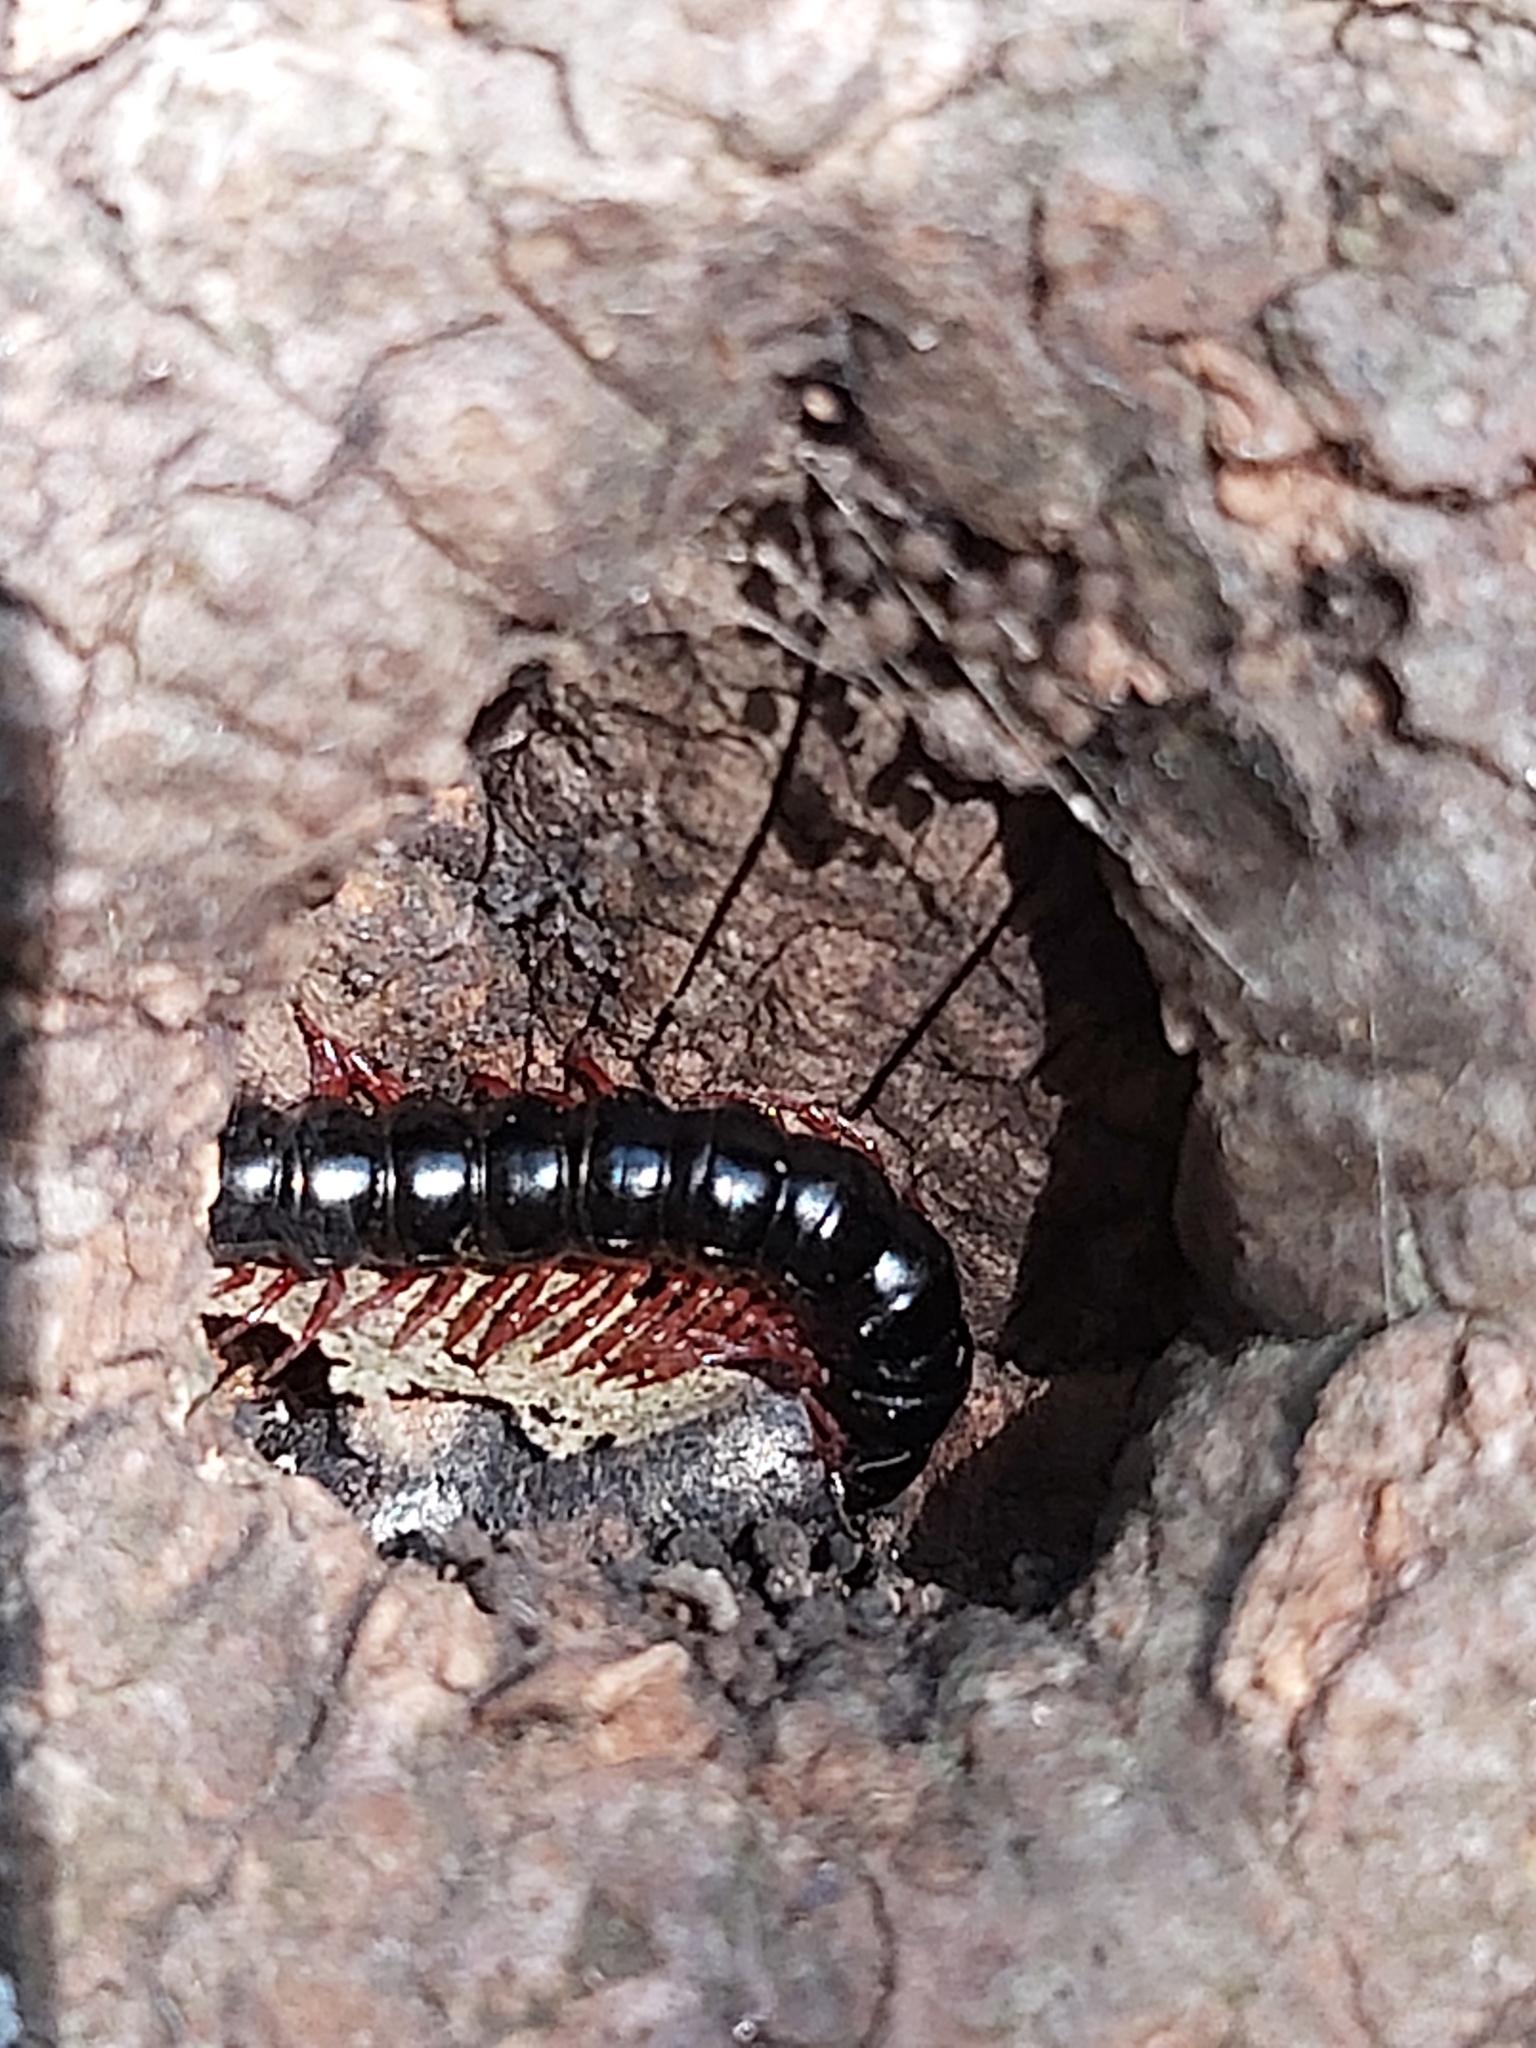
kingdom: Animalia
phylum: Arthropoda
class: Diplopoda
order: Polydesmida
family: Paradoxosomatidae
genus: Heterocladosoma
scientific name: Heterocladosoma
